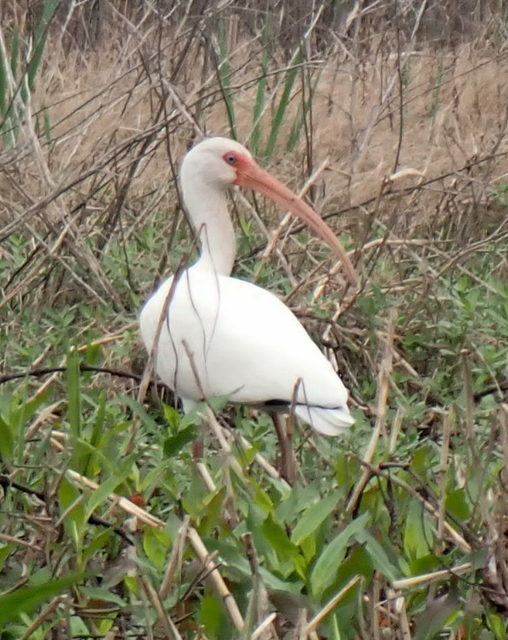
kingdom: Animalia
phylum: Chordata
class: Aves
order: Pelecaniformes
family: Threskiornithidae
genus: Eudocimus
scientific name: Eudocimus albus
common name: White ibis
